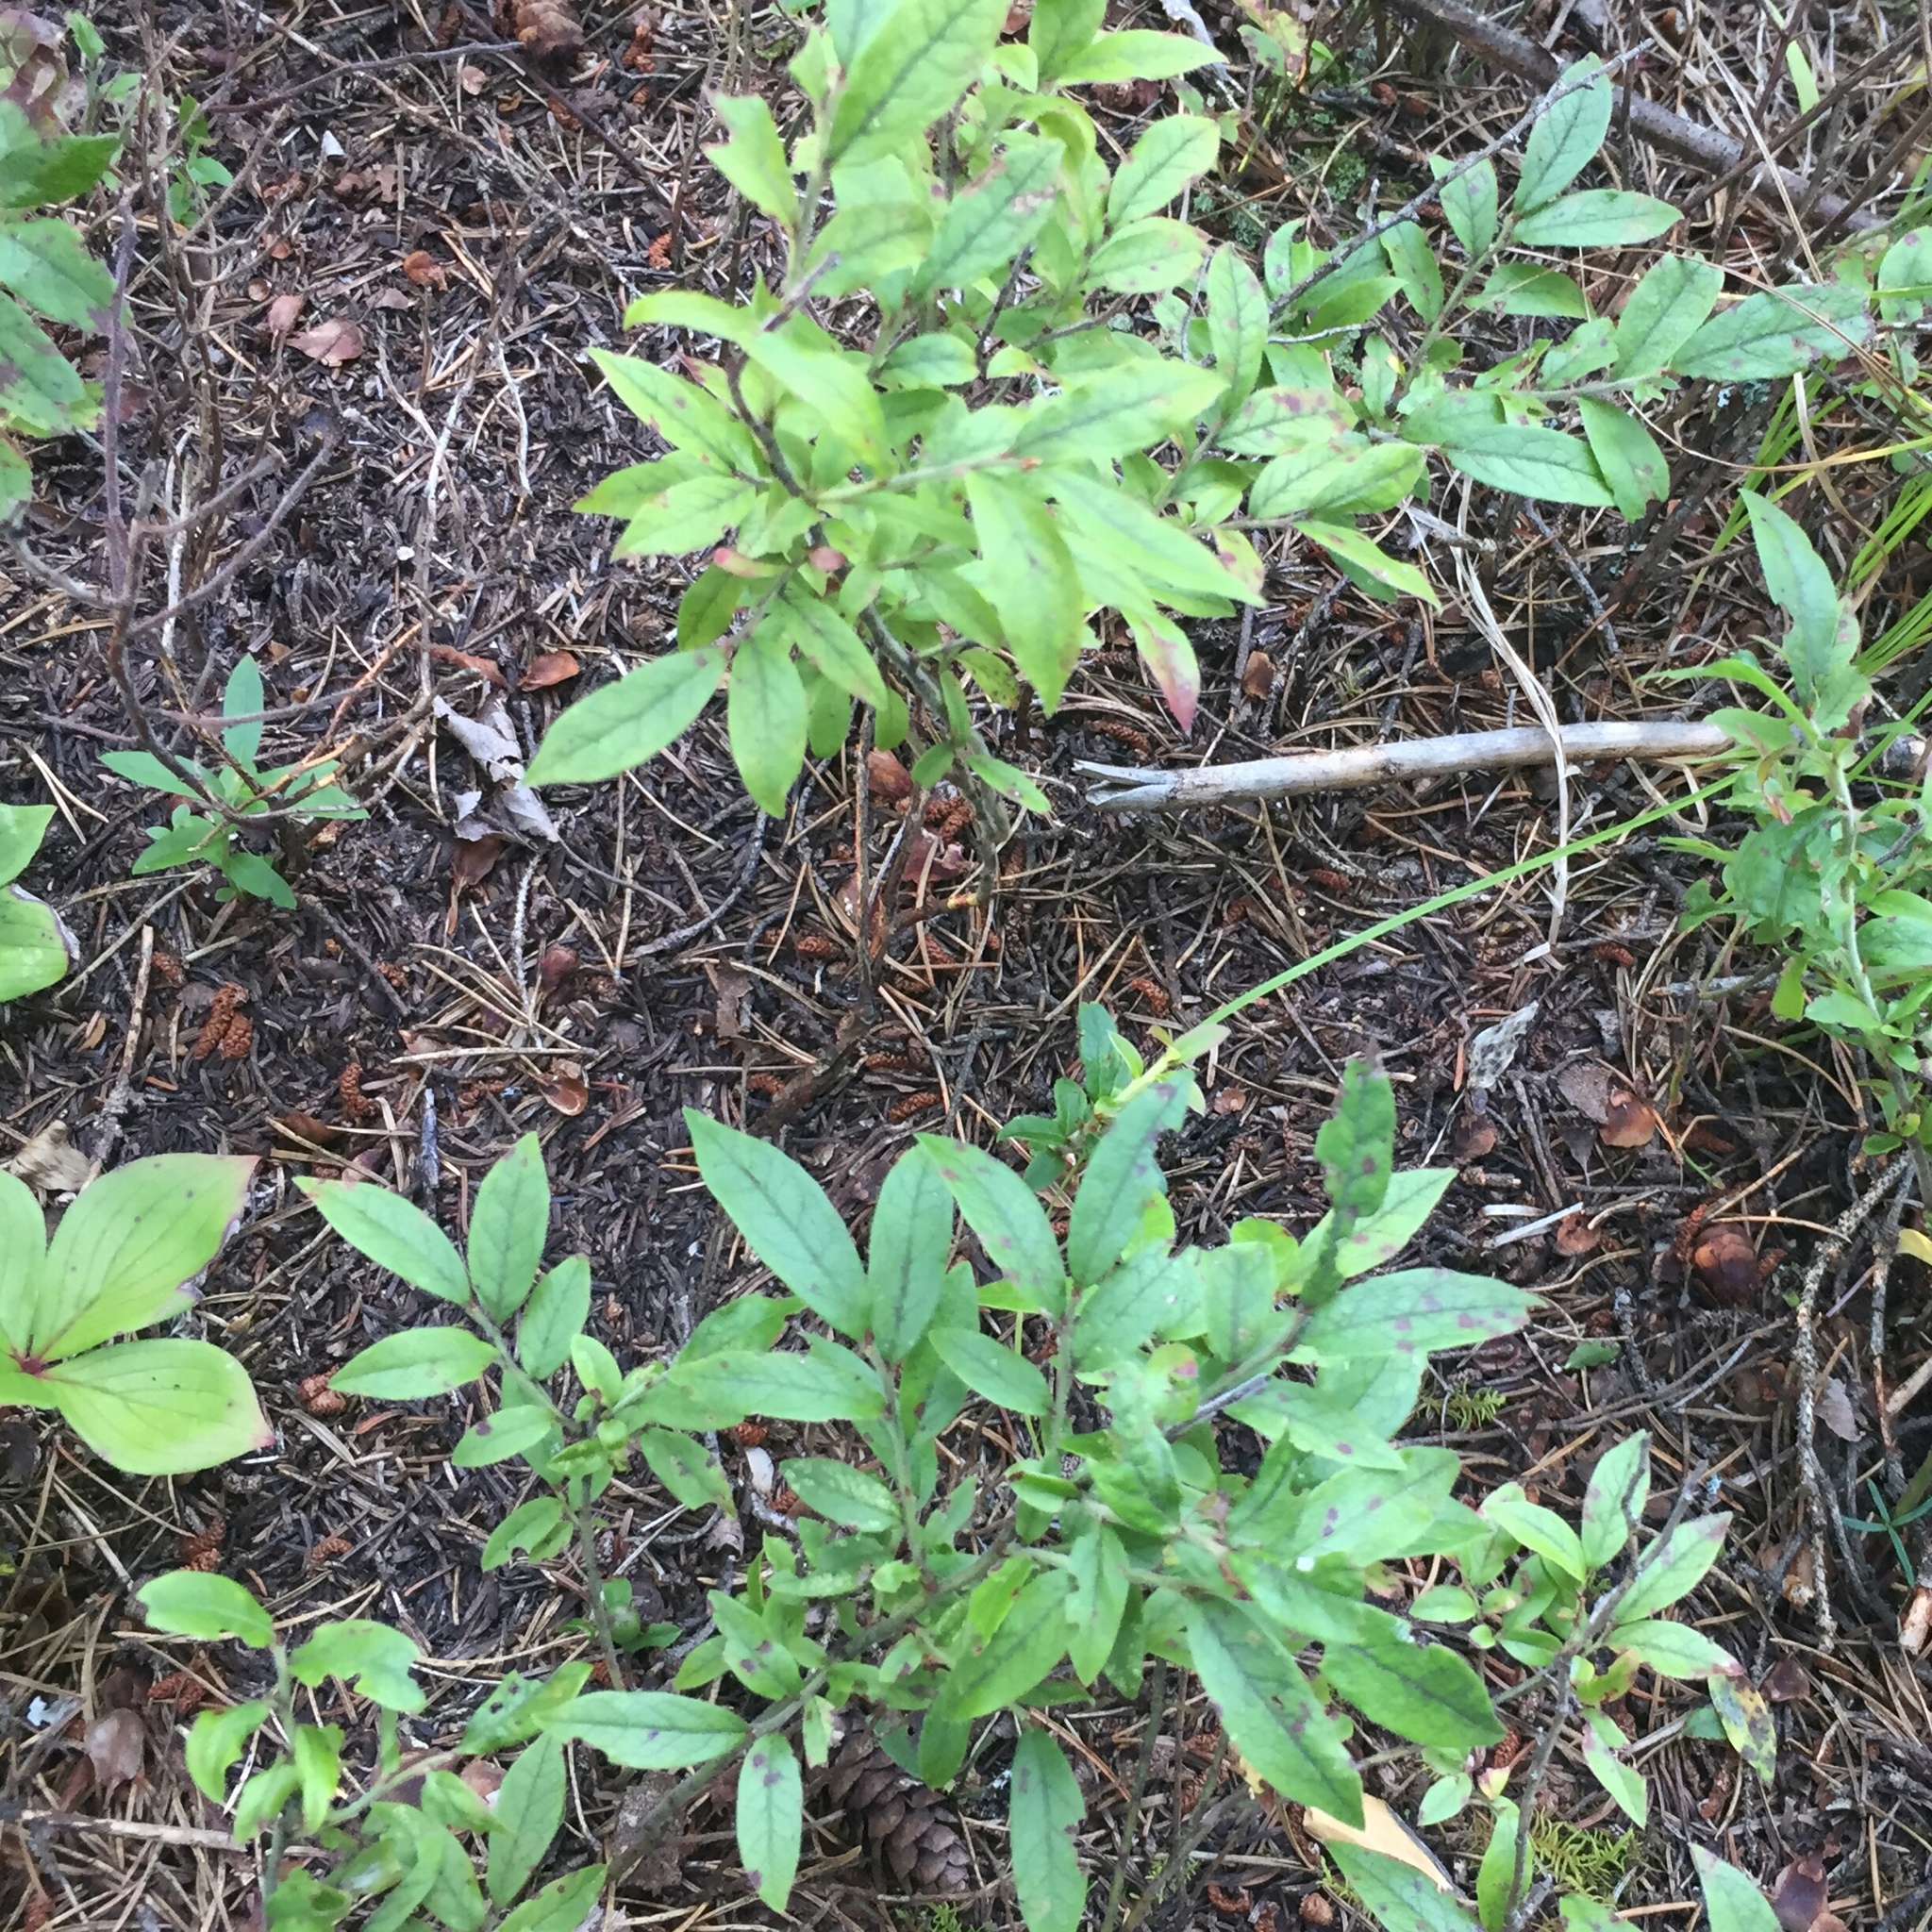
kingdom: Plantae
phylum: Tracheophyta
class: Magnoliopsida
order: Ericales
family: Ericaceae
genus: Vaccinium
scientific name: Vaccinium myrtilloides
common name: Canada blueberry
